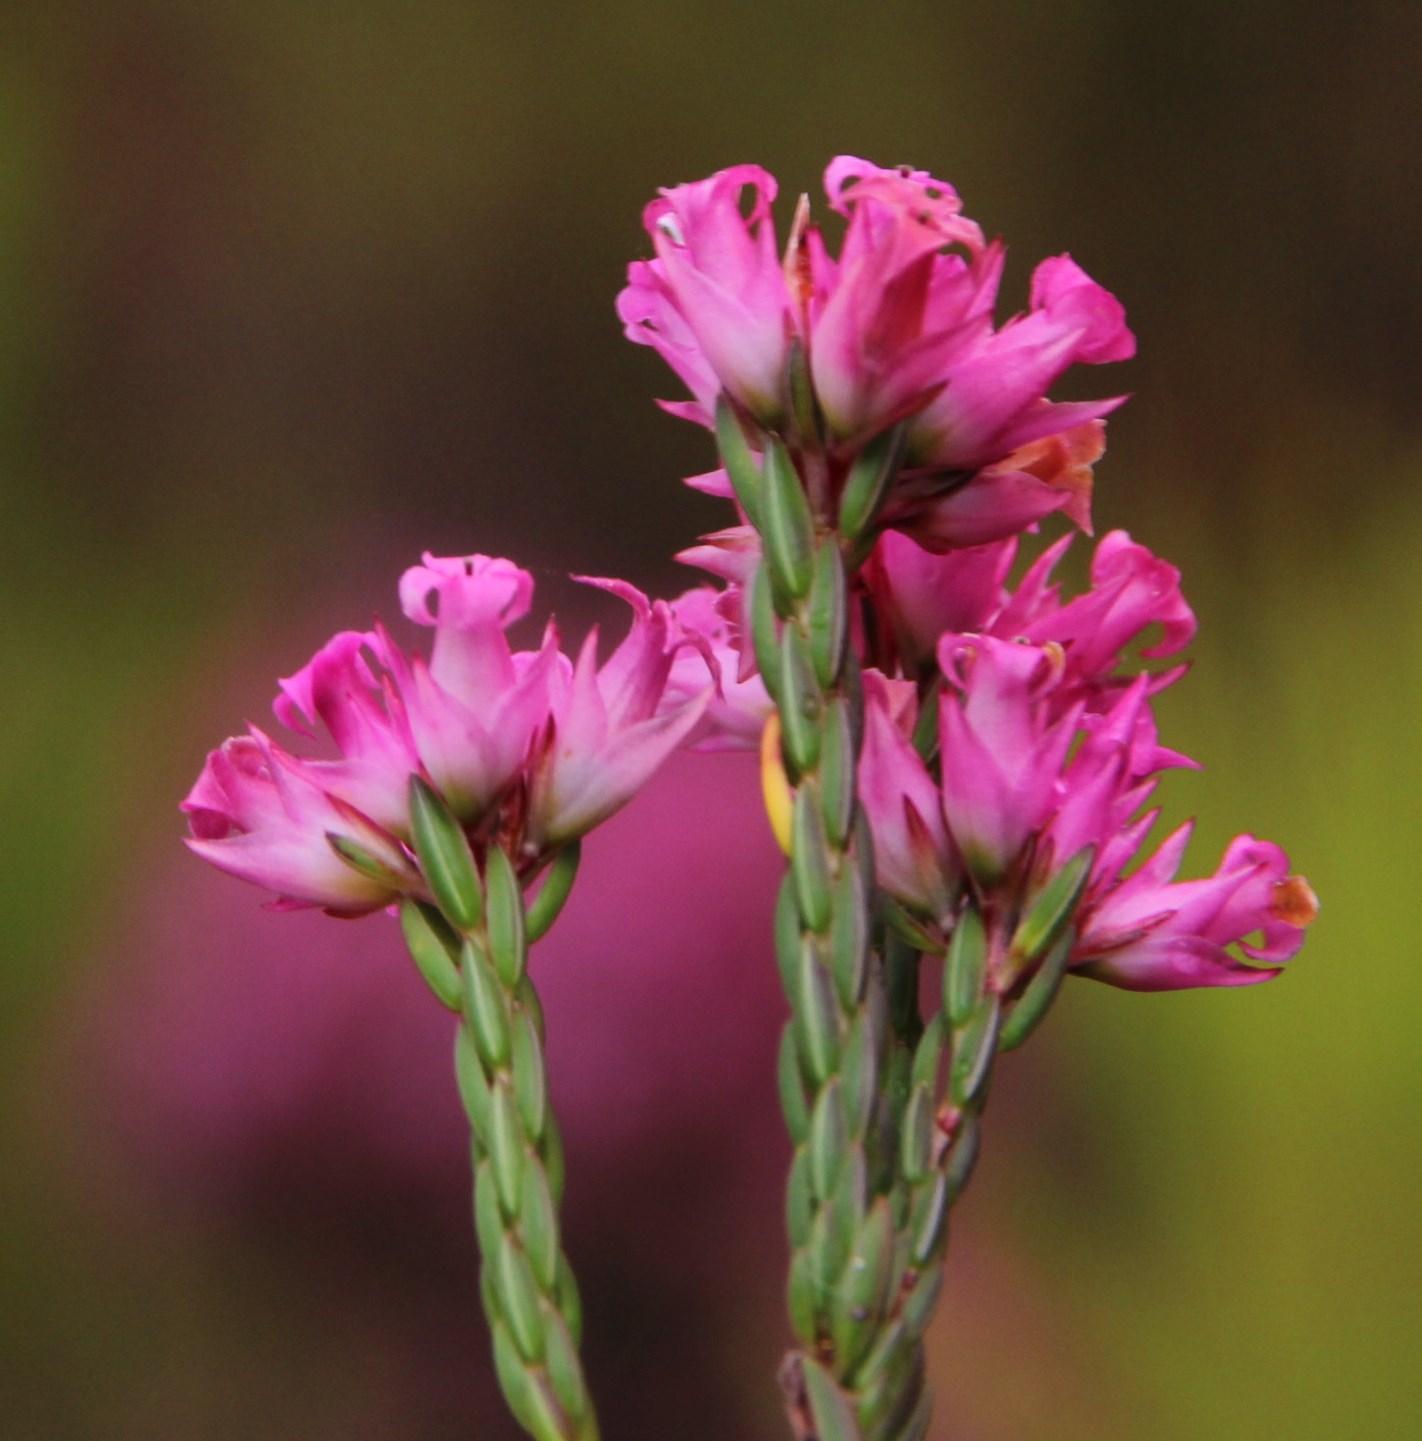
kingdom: Plantae
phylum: Tracheophyta
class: Magnoliopsida
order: Ericales
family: Ericaceae
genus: Erica
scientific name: Erica bracteolaris
